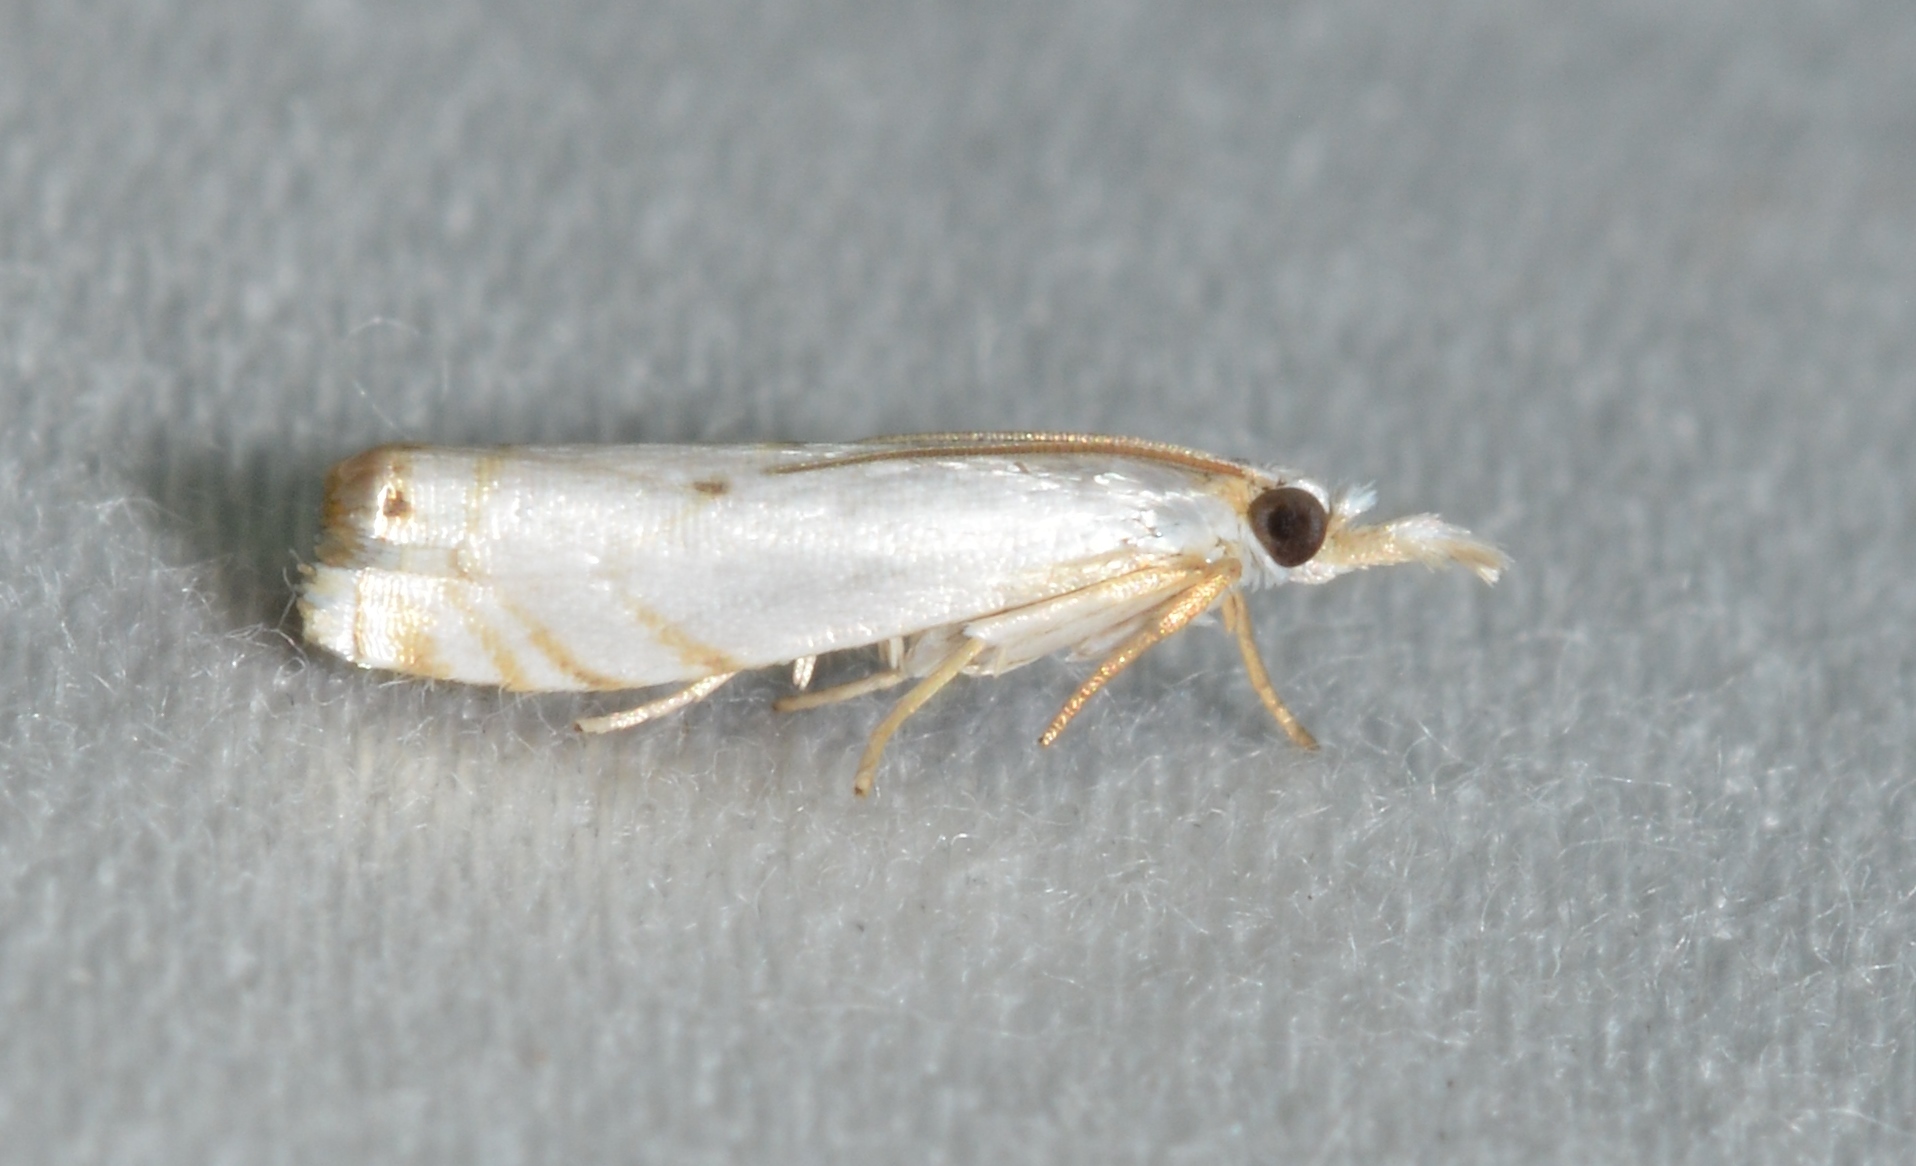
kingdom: Animalia
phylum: Arthropoda
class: Insecta
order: Lepidoptera
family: Crambidae
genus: Microcrambus
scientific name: Microcrambus biguttellus
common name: Gold-stripe grass-veneer moth
